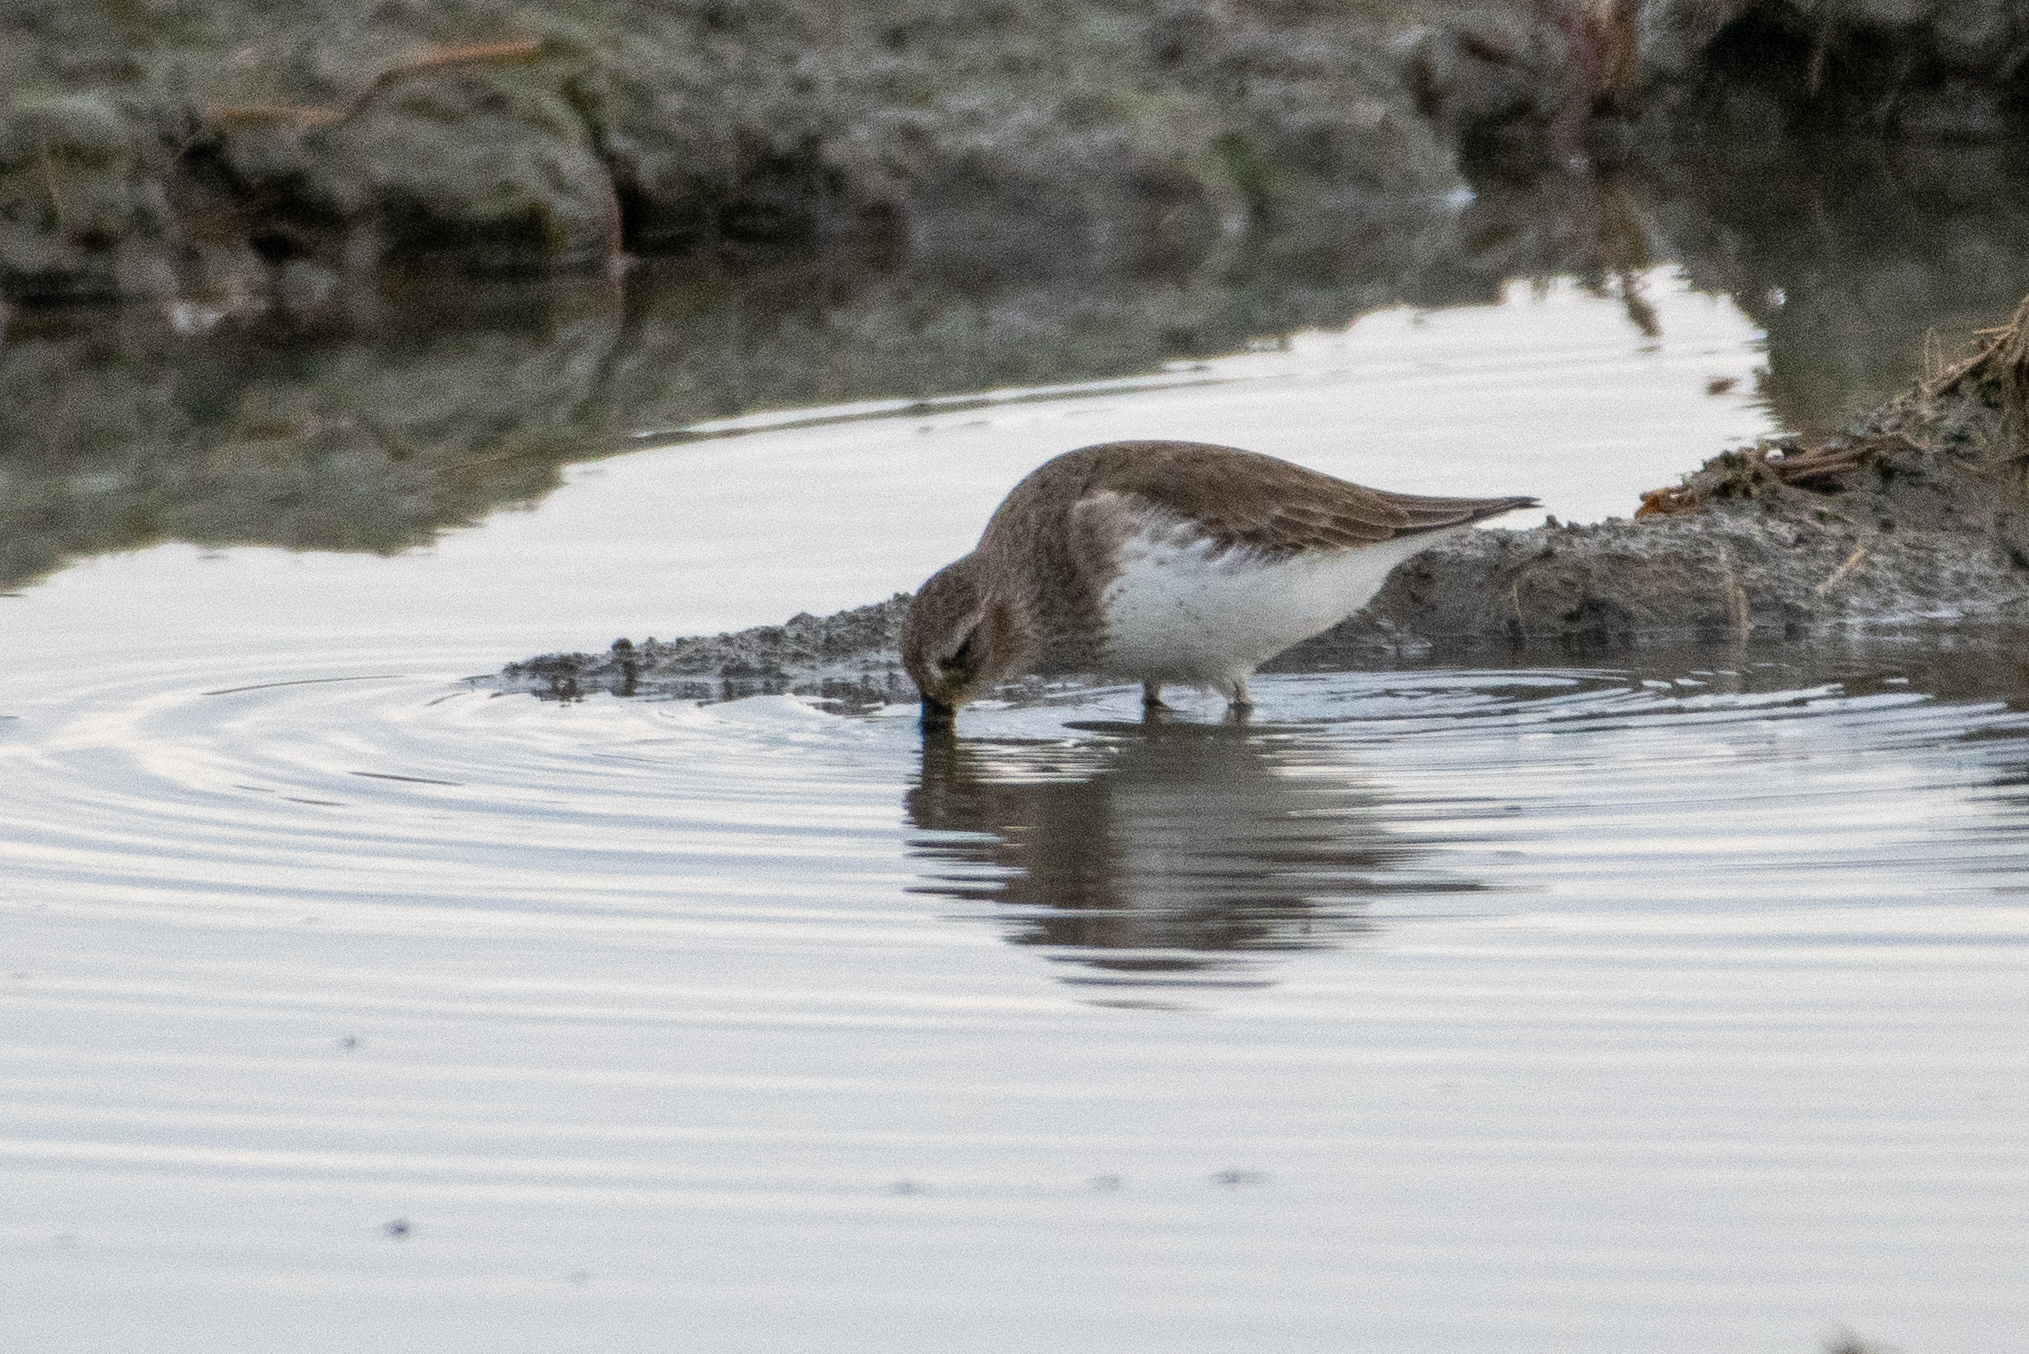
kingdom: Animalia
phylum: Chordata
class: Aves
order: Charadriiformes
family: Scolopacidae
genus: Calidris
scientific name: Calidris alpina
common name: Dunlin
